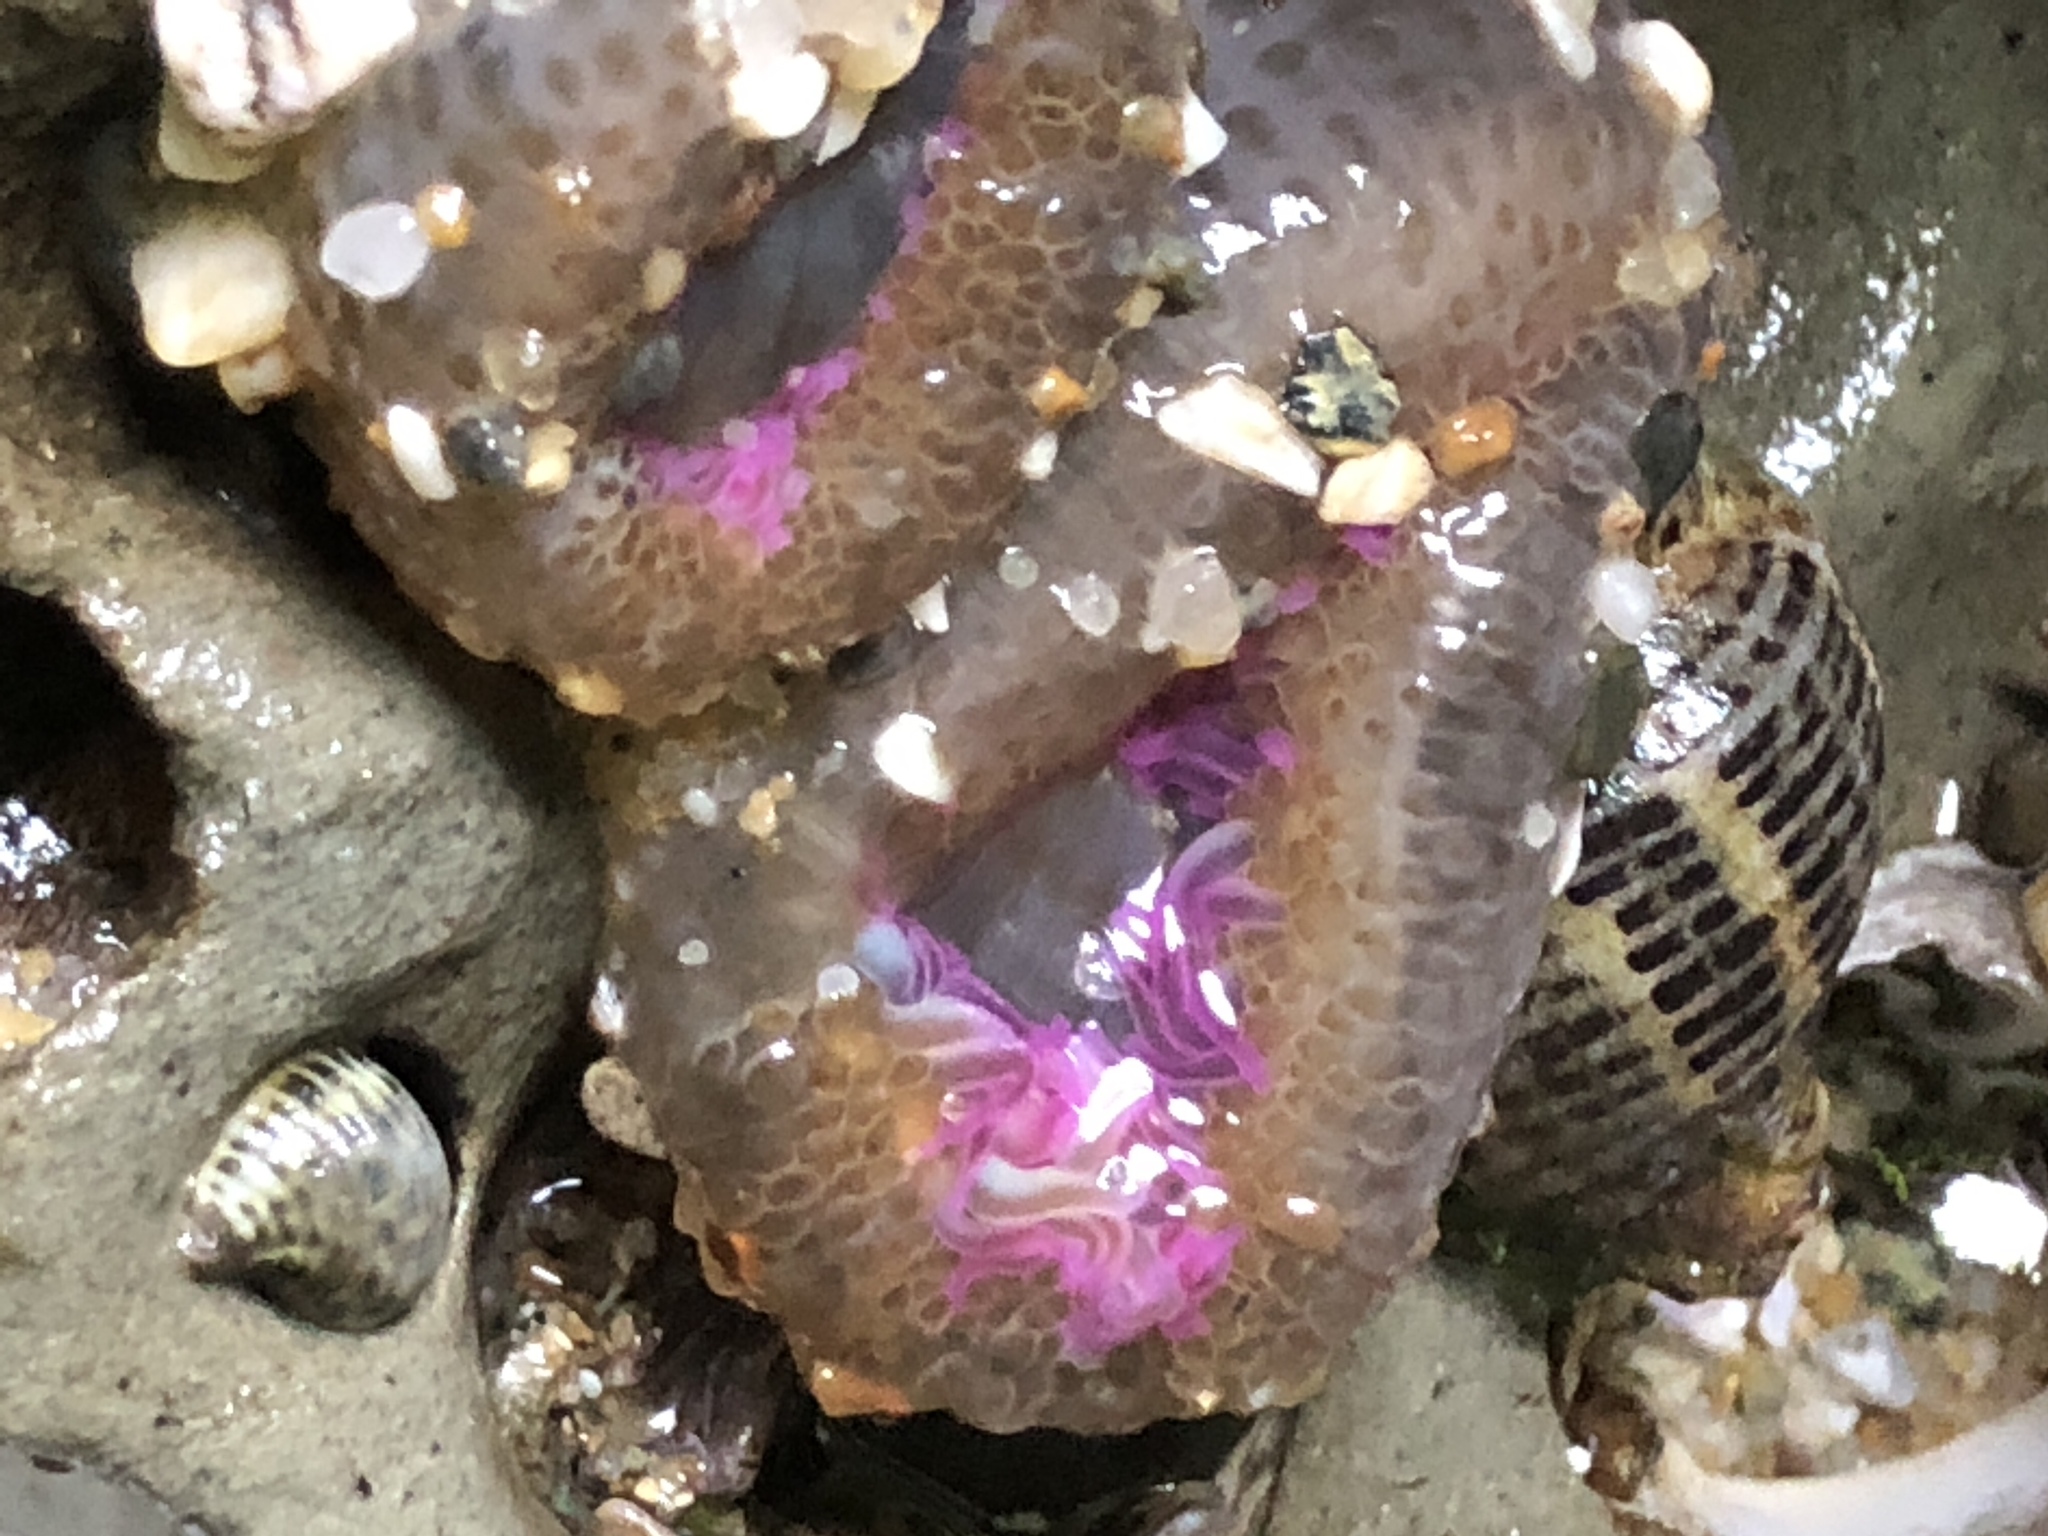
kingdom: Animalia
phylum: Cnidaria
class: Anthozoa
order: Actiniaria
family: Actiniidae
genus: Anthopleura
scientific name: Anthopleura elegantissima
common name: Clonal anemone
